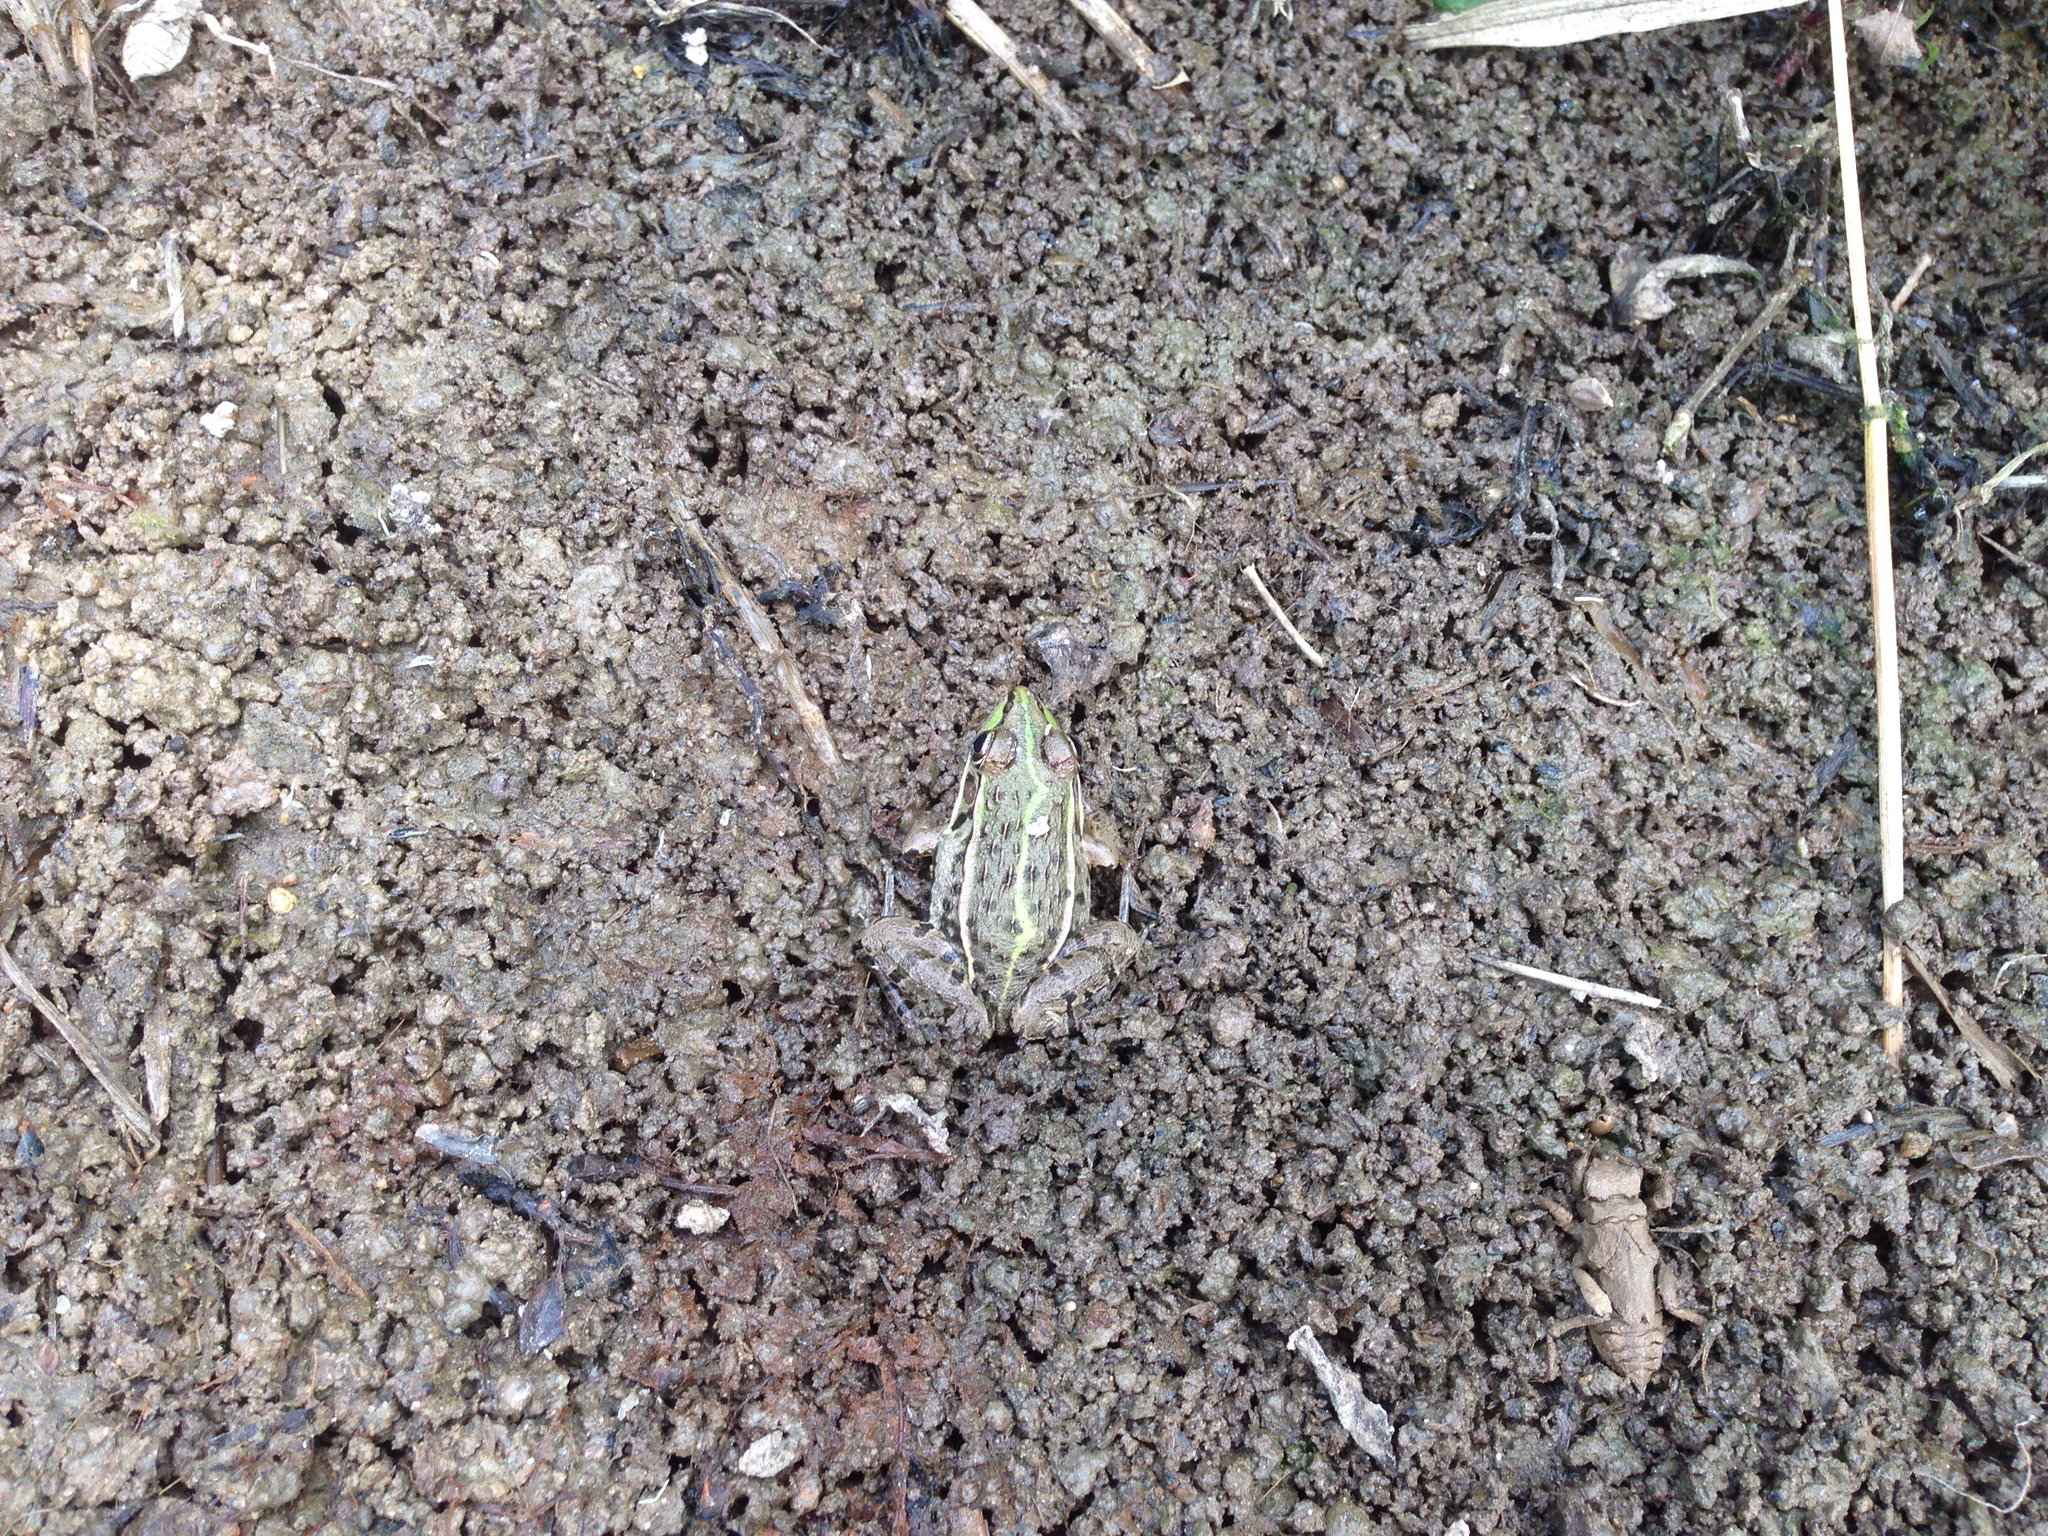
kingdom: Animalia
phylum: Chordata
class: Amphibia
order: Anura
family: Ranidae
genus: Pelophylax
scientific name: Pelophylax nigromaculatus
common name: Black-spotted pond frog
